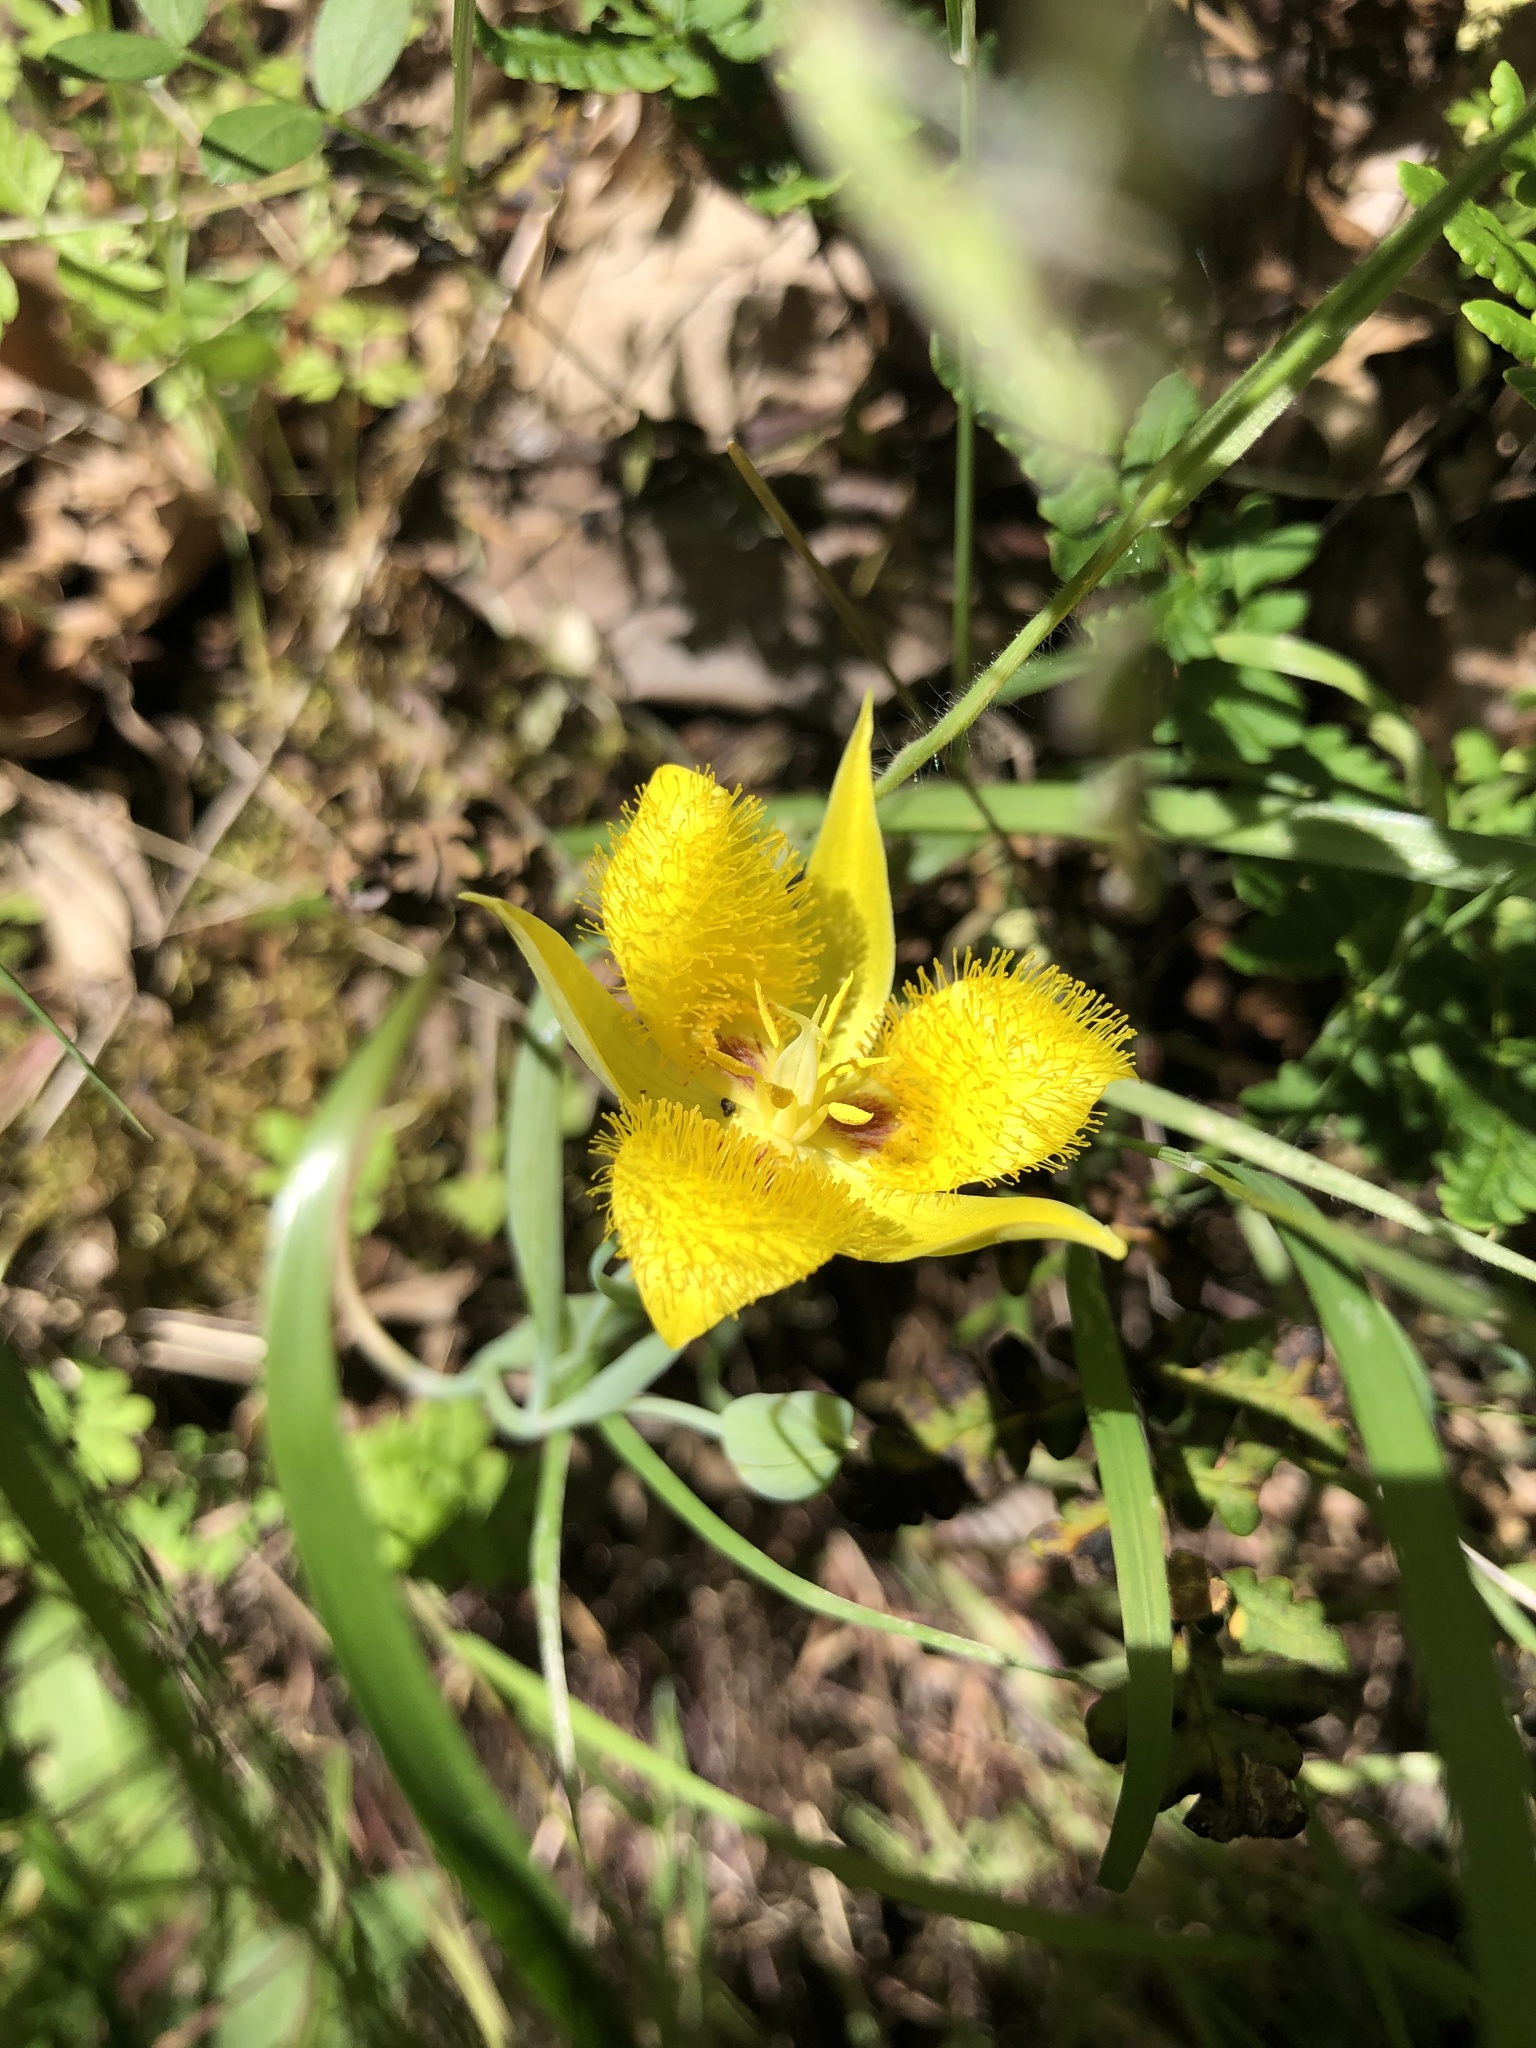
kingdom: Plantae
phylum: Tracheophyta
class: Liliopsida
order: Liliales
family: Liliaceae
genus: Calochortus
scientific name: Calochortus monophyllus
